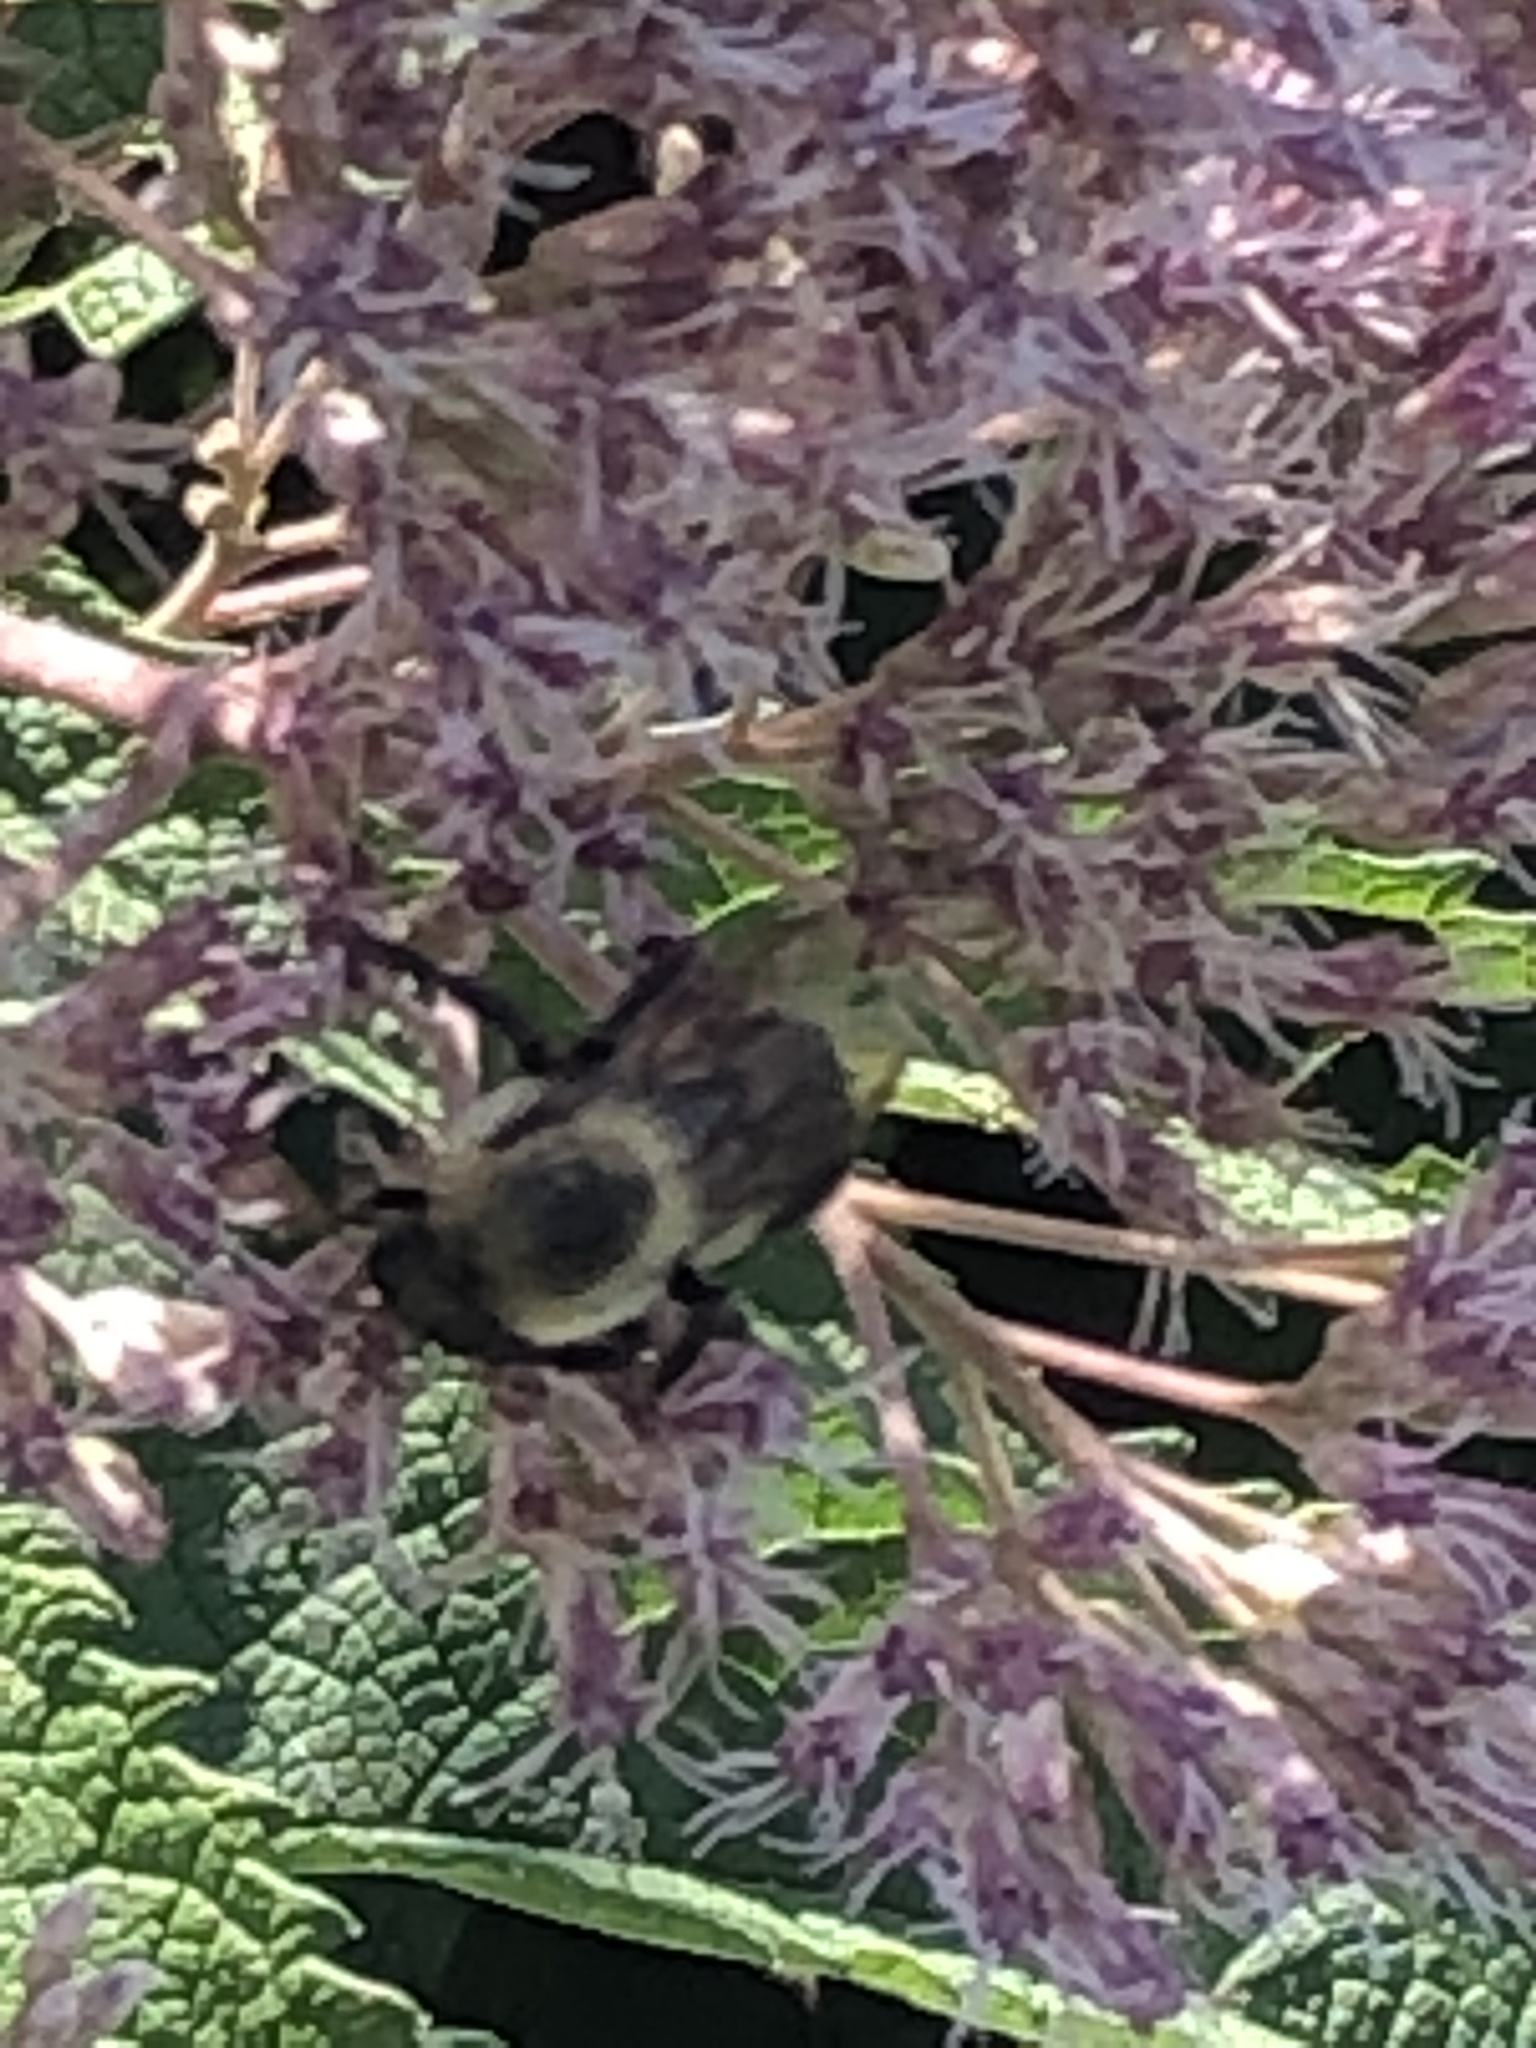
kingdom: Animalia
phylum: Arthropoda
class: Insecta
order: Hymenoptera
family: Apidae
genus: Bombus
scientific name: Bombus griseocollis
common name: Brown-belted bumble bee
